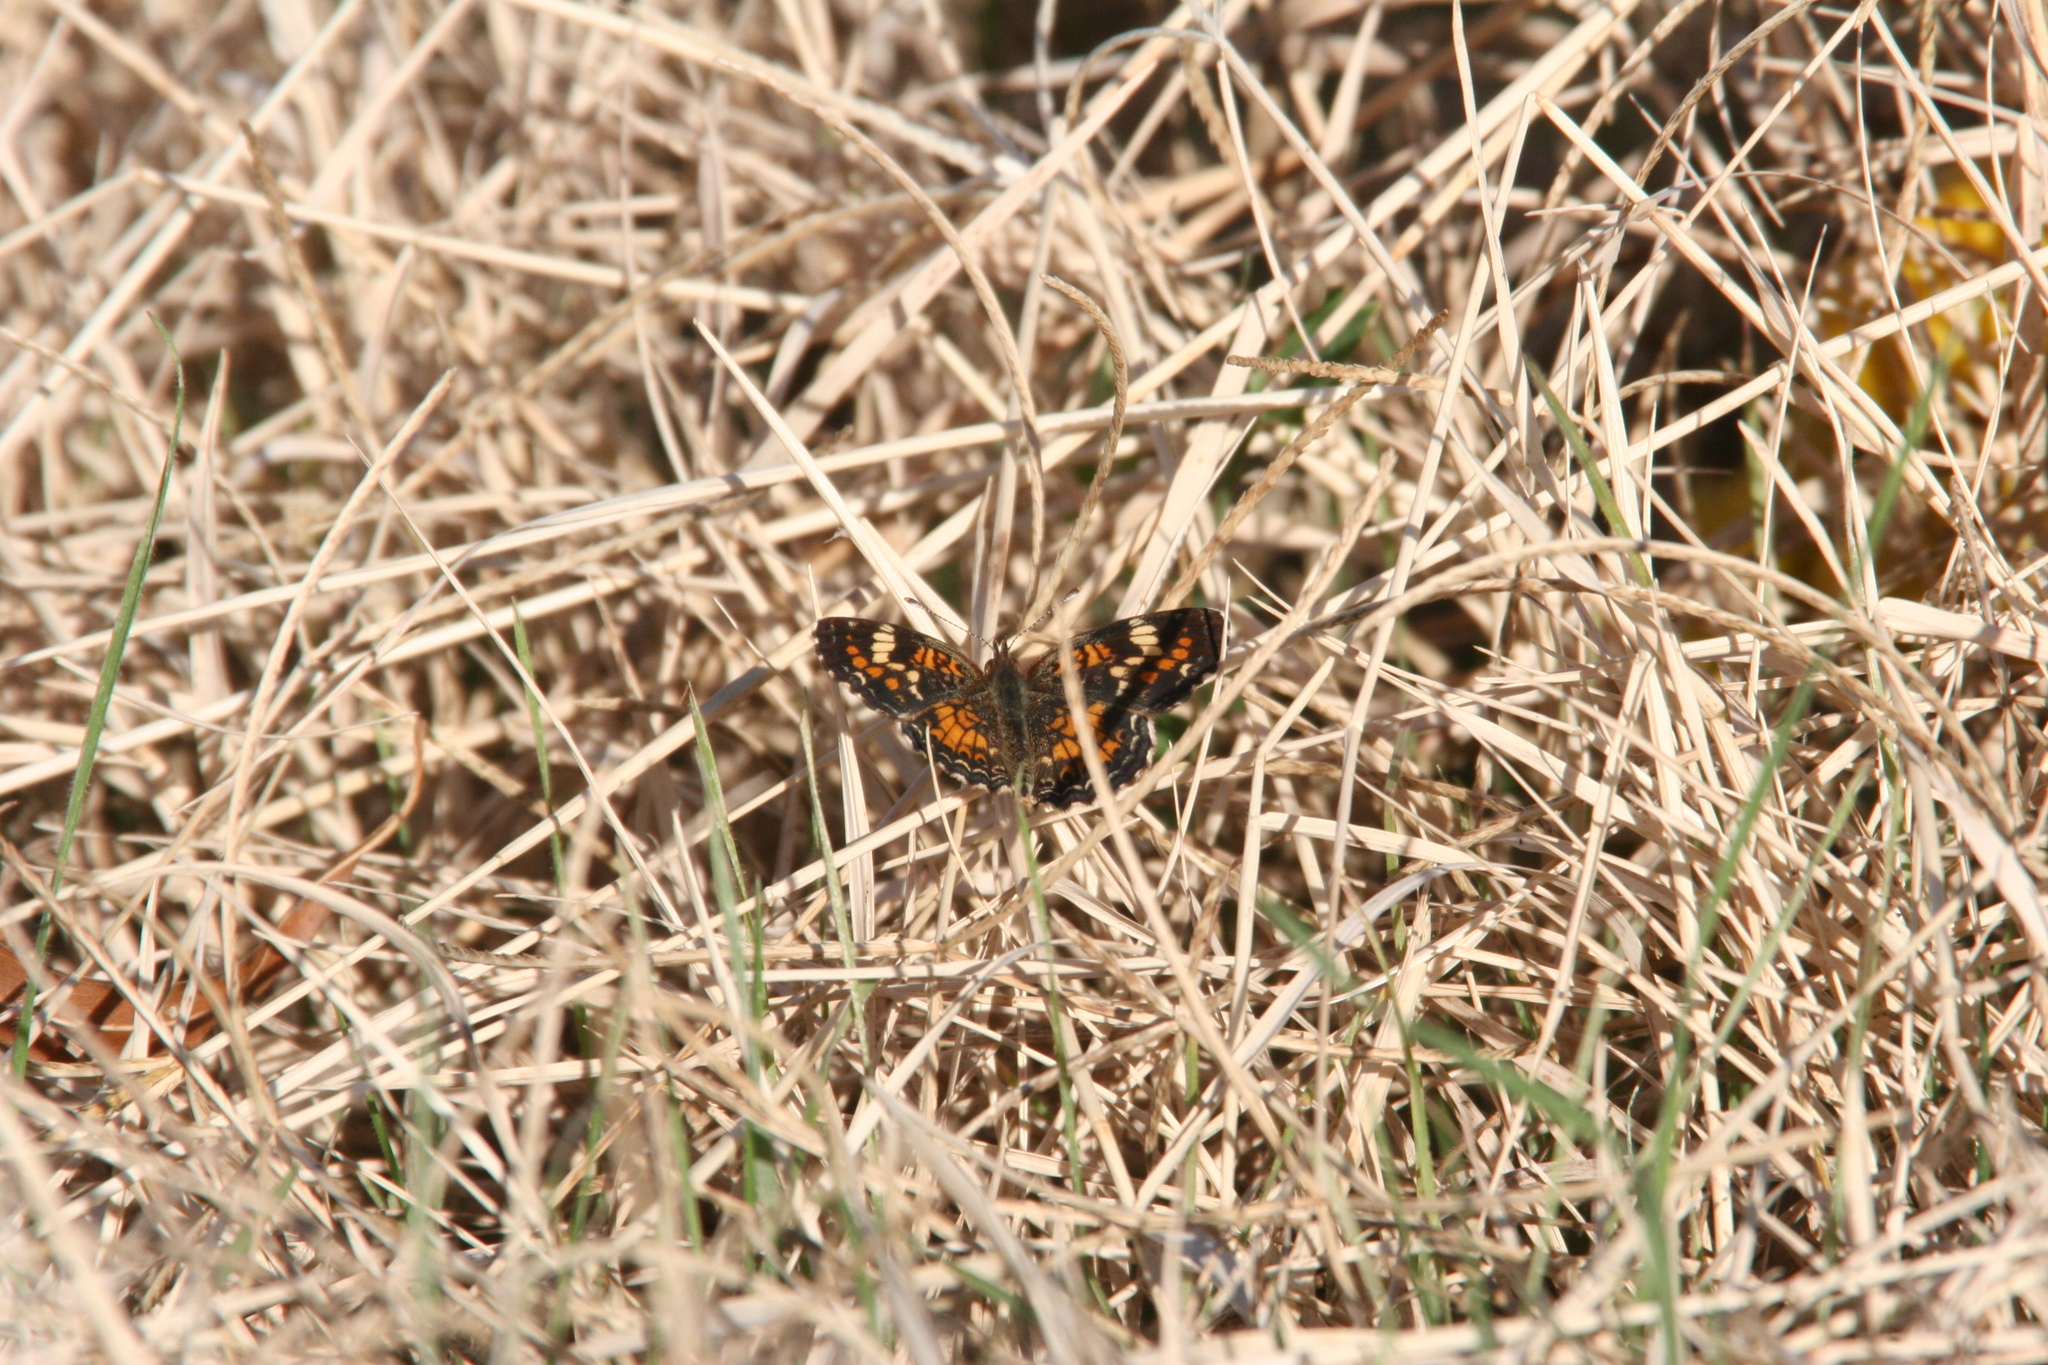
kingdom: Animalia
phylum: Arthropoda
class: Insecta
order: Lepidoptera
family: Nymphalidae
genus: Phyciodes
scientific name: Phyciodes phaon
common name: Phaon crescent
